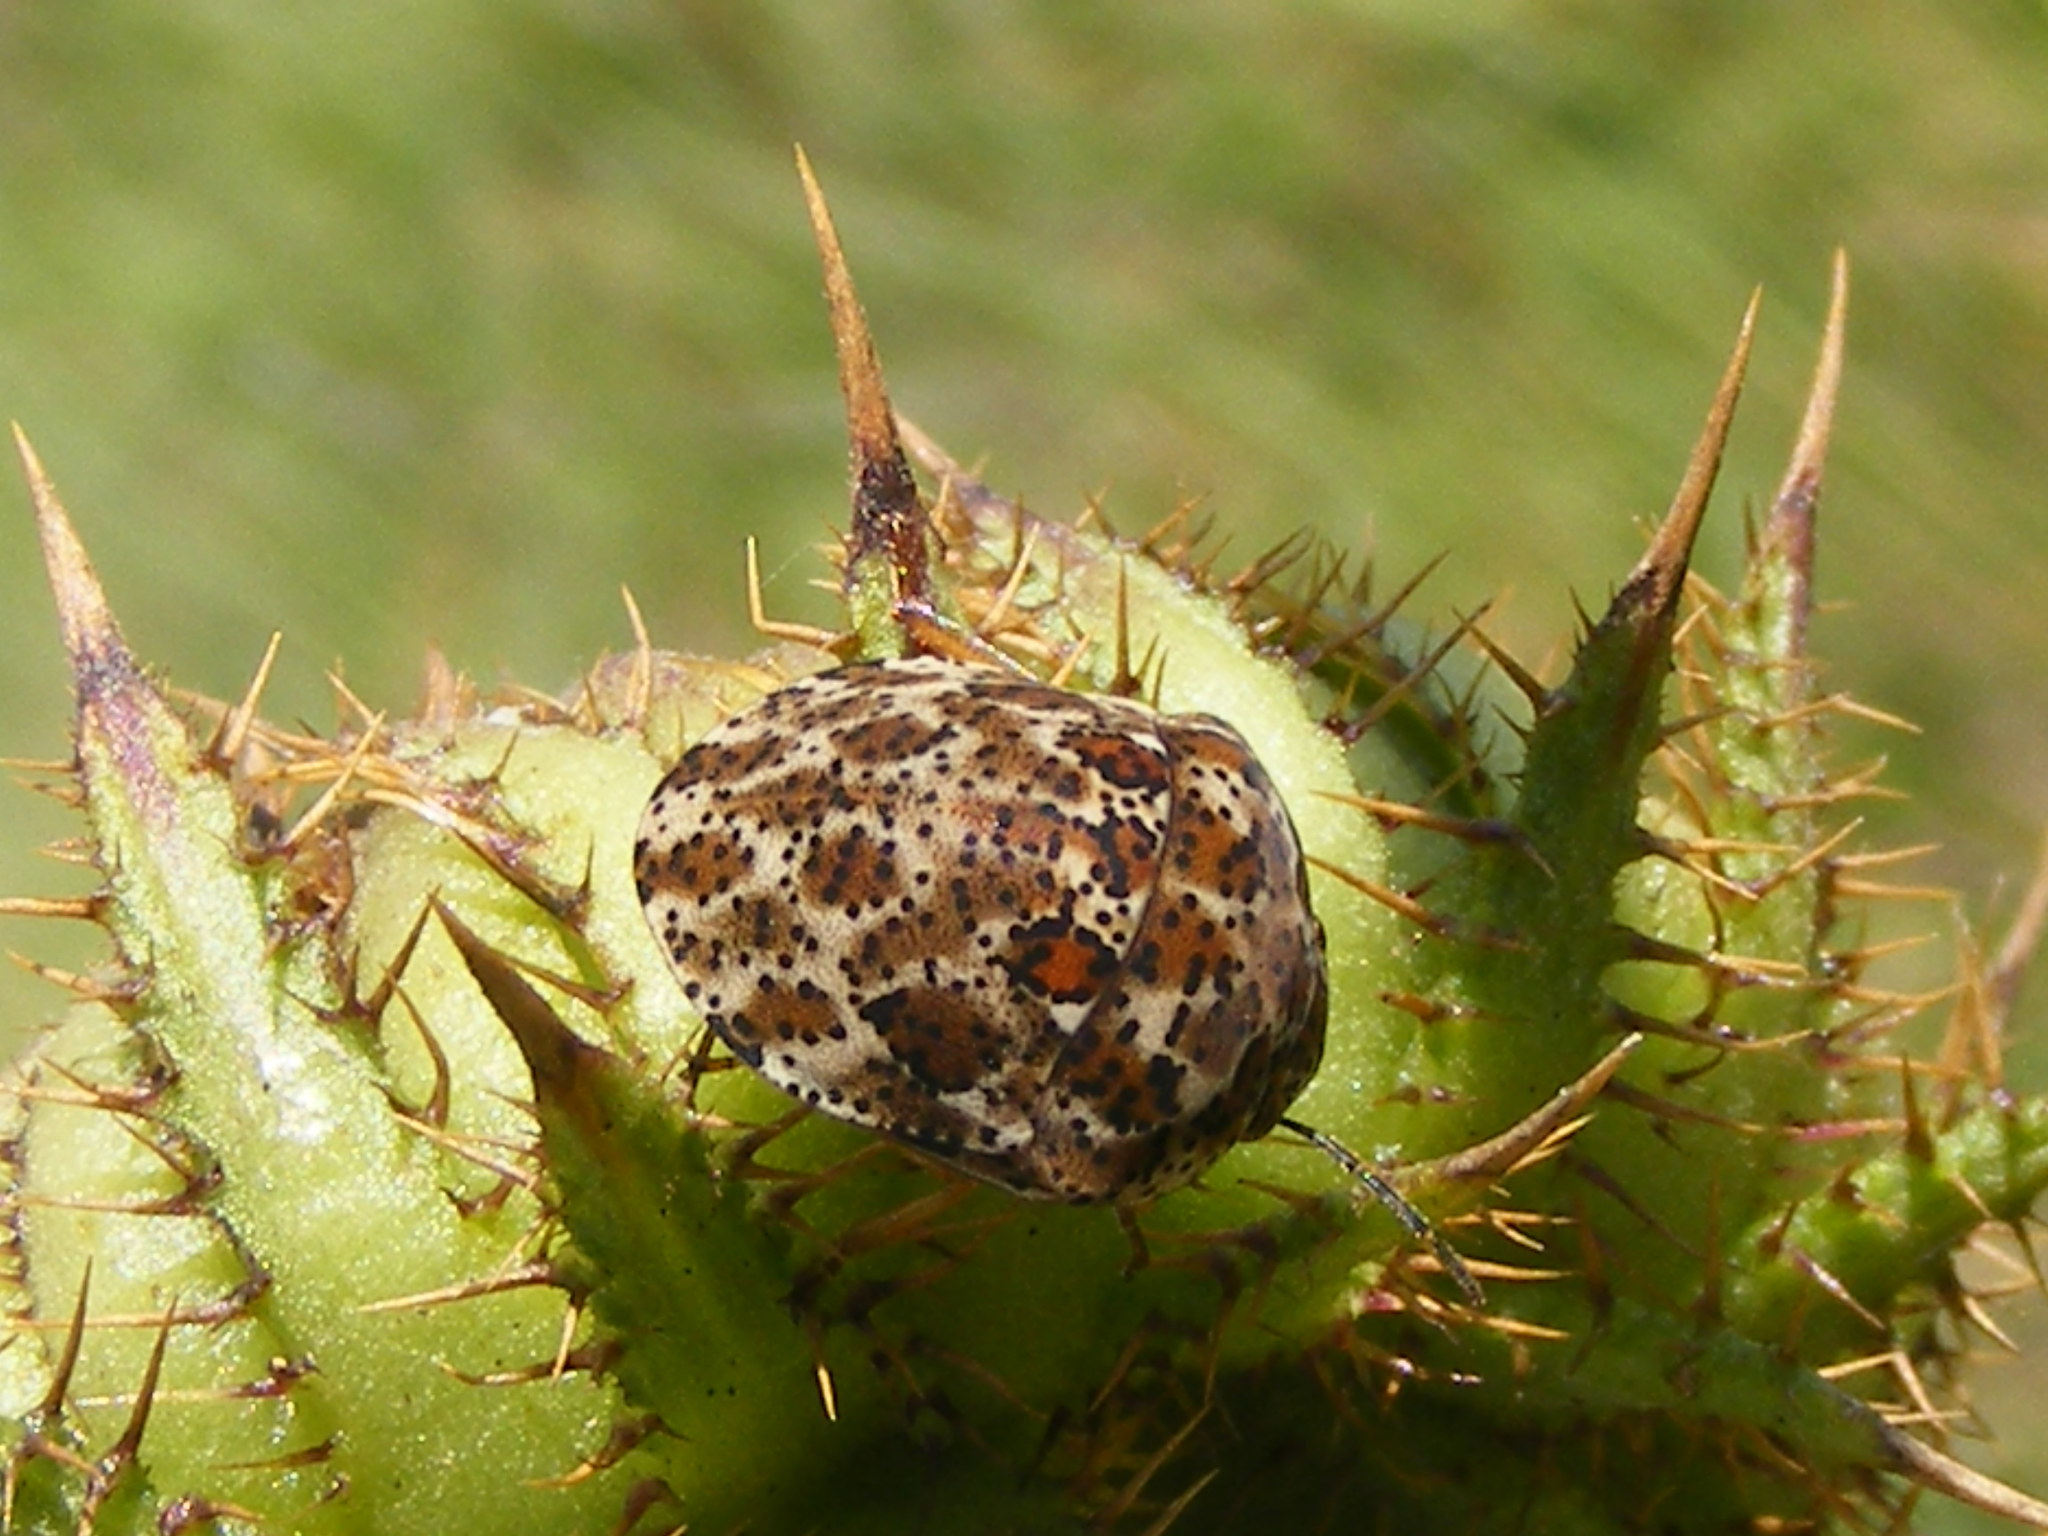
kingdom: Animalia
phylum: Arthropoda
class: Insecta
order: Hemiptera
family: Scutelleridae
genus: Sphaerocoris
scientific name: Sphaerocoris
